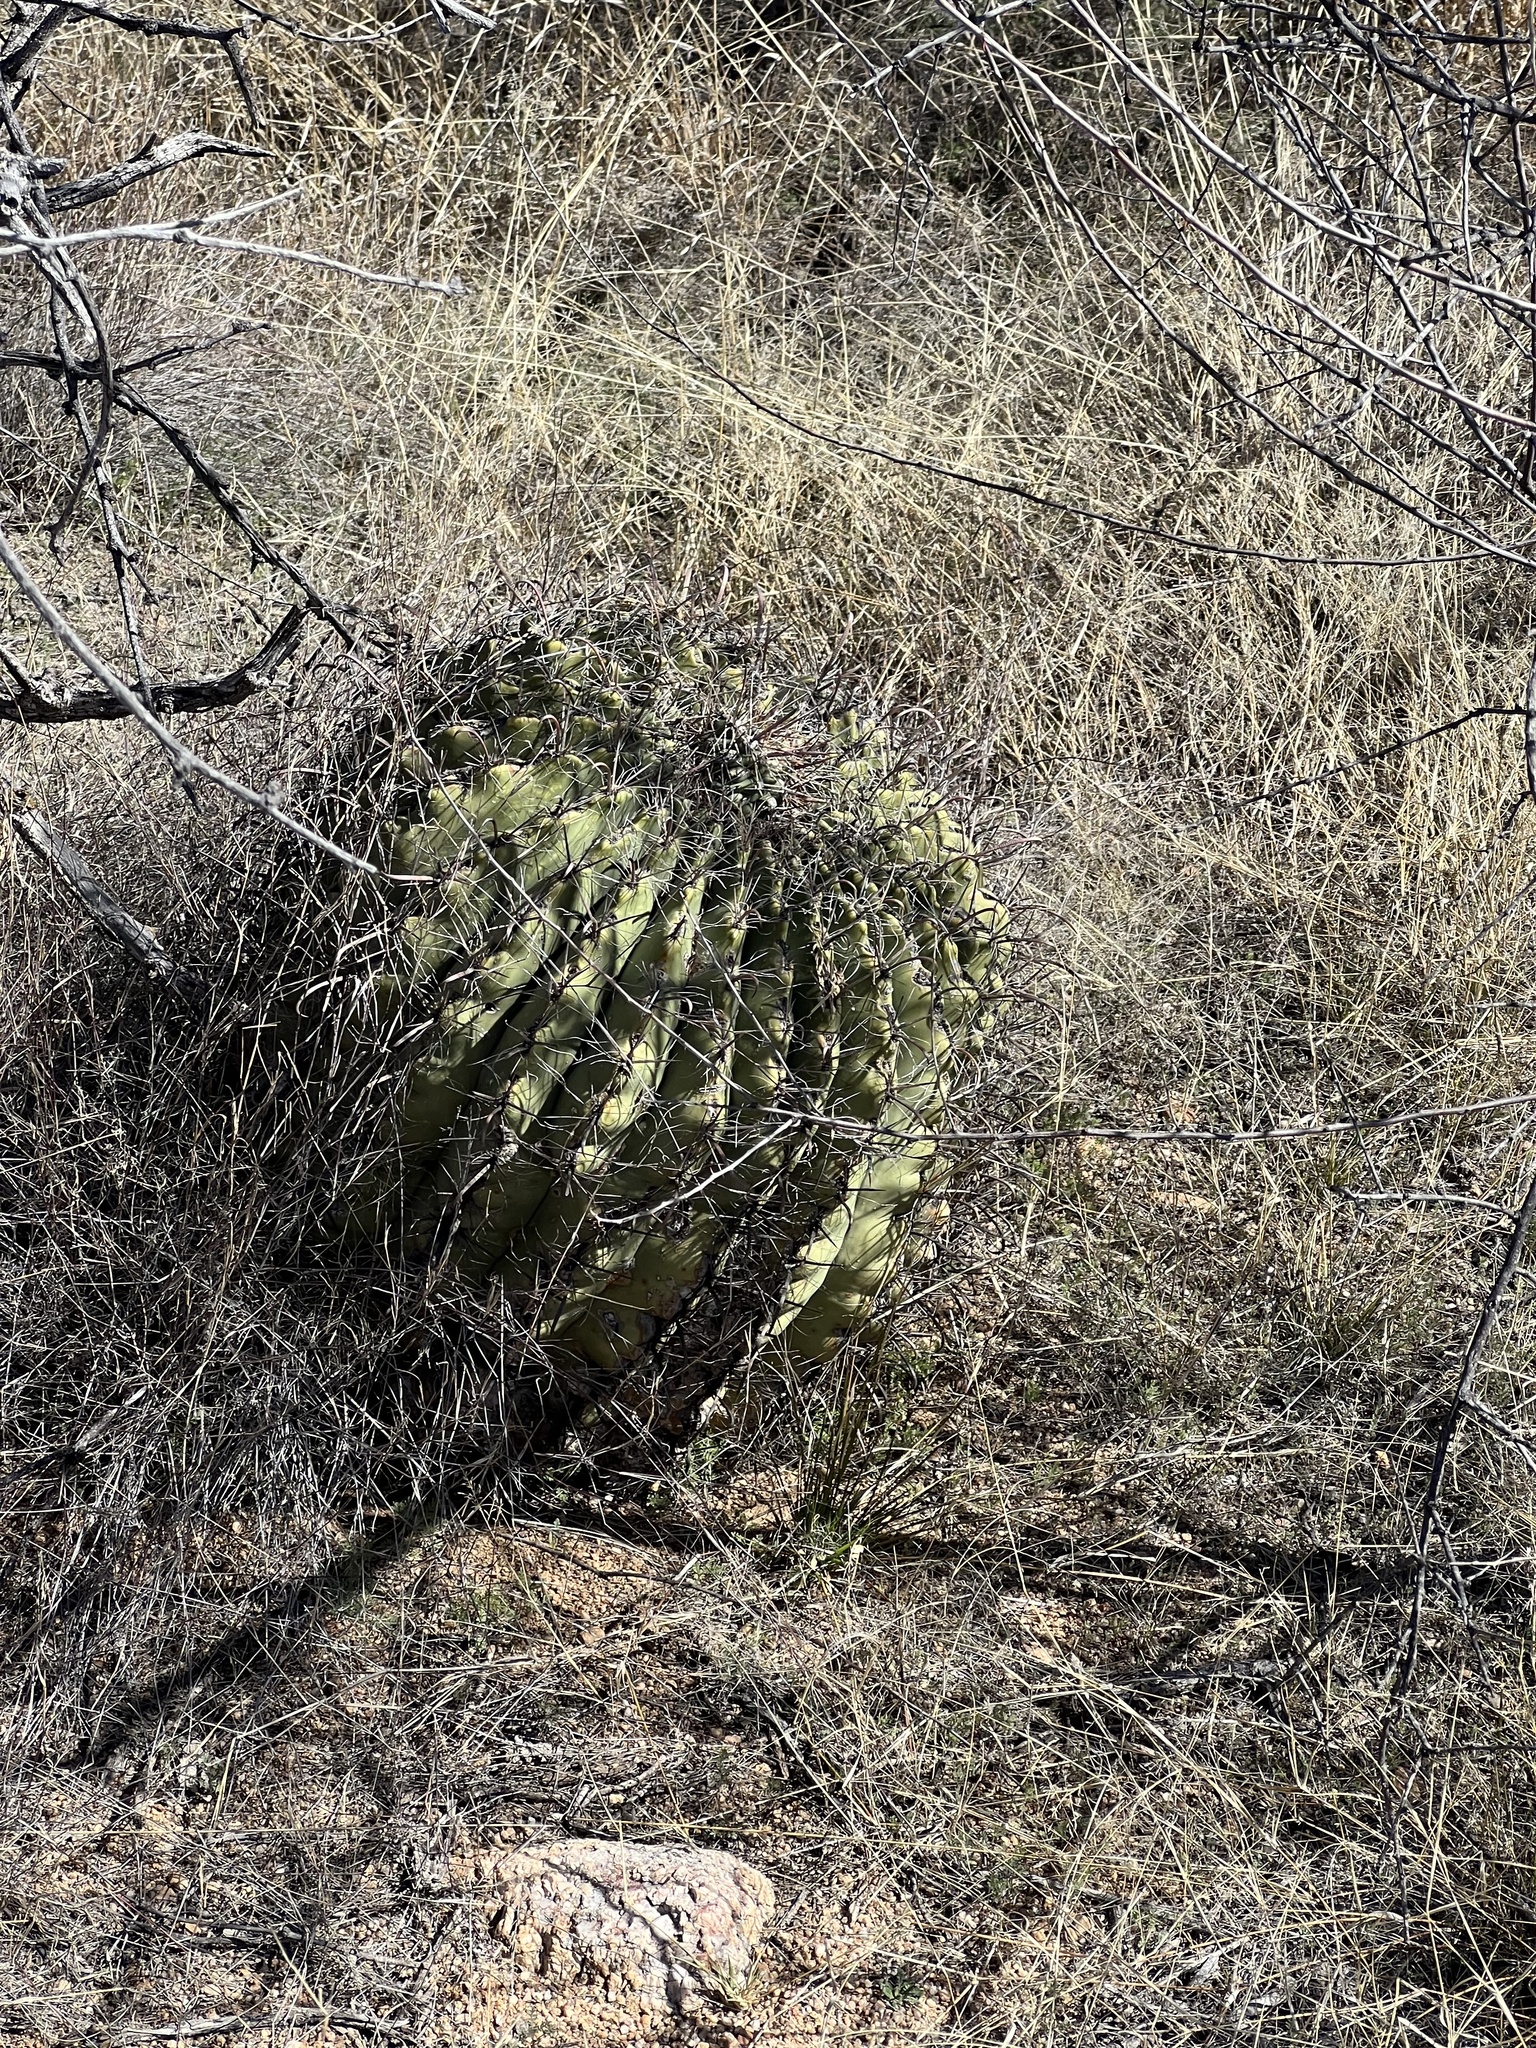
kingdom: Plantae
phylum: Tracheophyta
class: Magnoliopsida
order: Caryophyllales
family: Cactaceae
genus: Ferocactus
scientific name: Ferocactus wislizeni
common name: Candy barrel cactus
